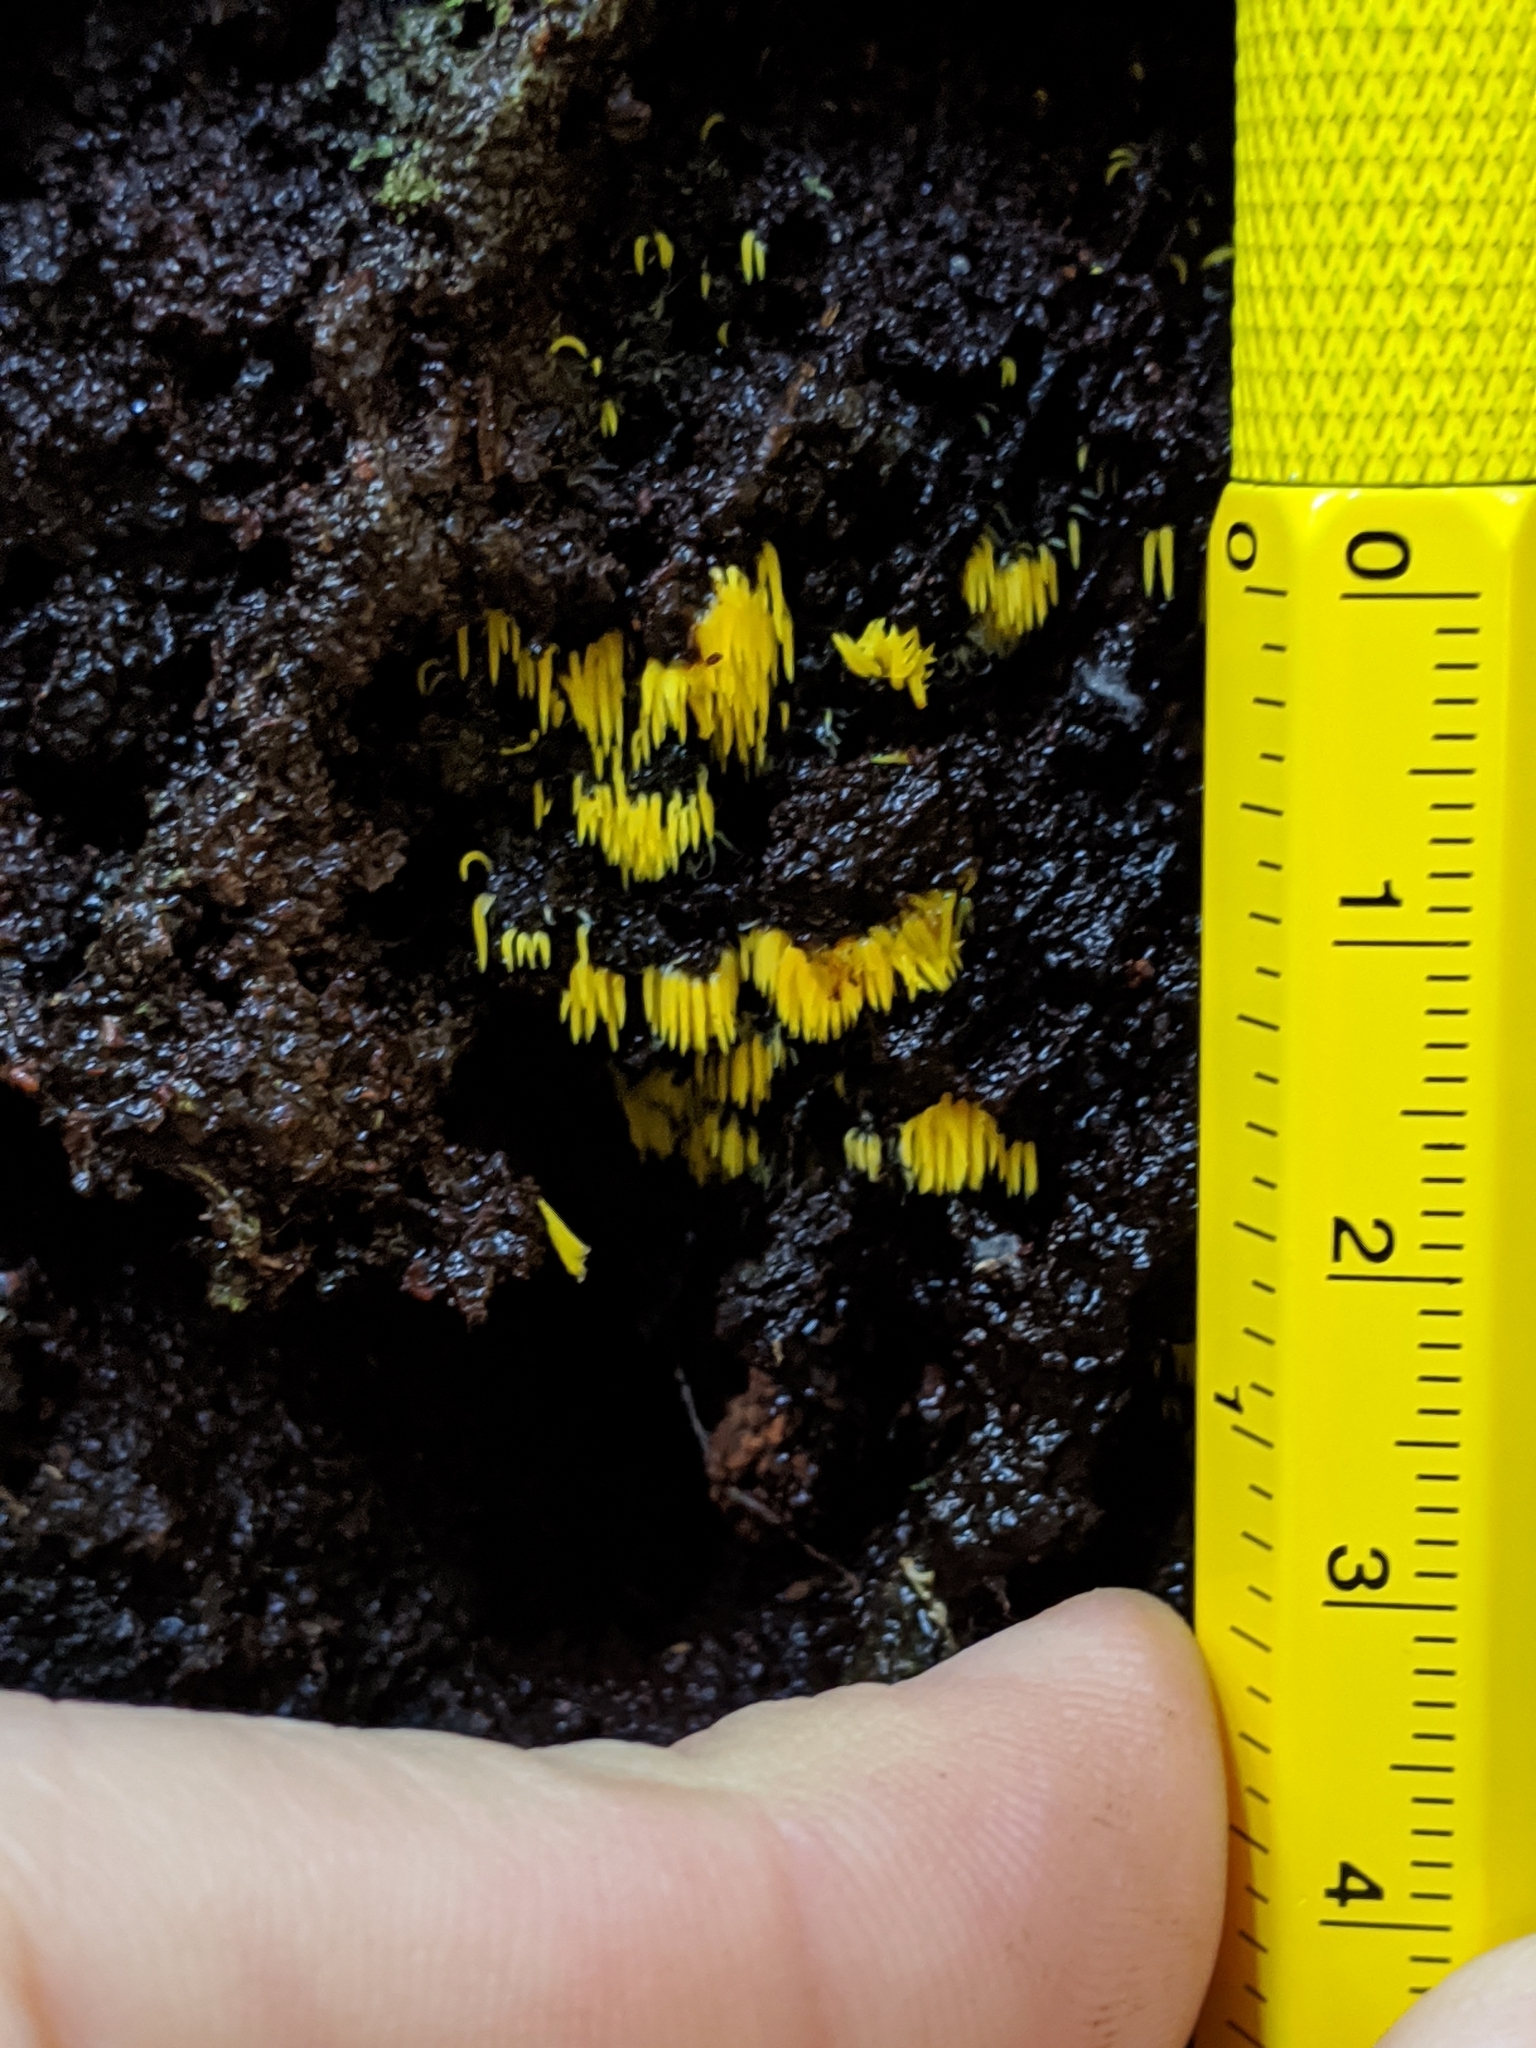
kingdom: Fungi
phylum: Basidiomycota
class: Agaricomycetes
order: Agaricales
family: Clavariaceae
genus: Mucronella
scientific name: Mucronella
